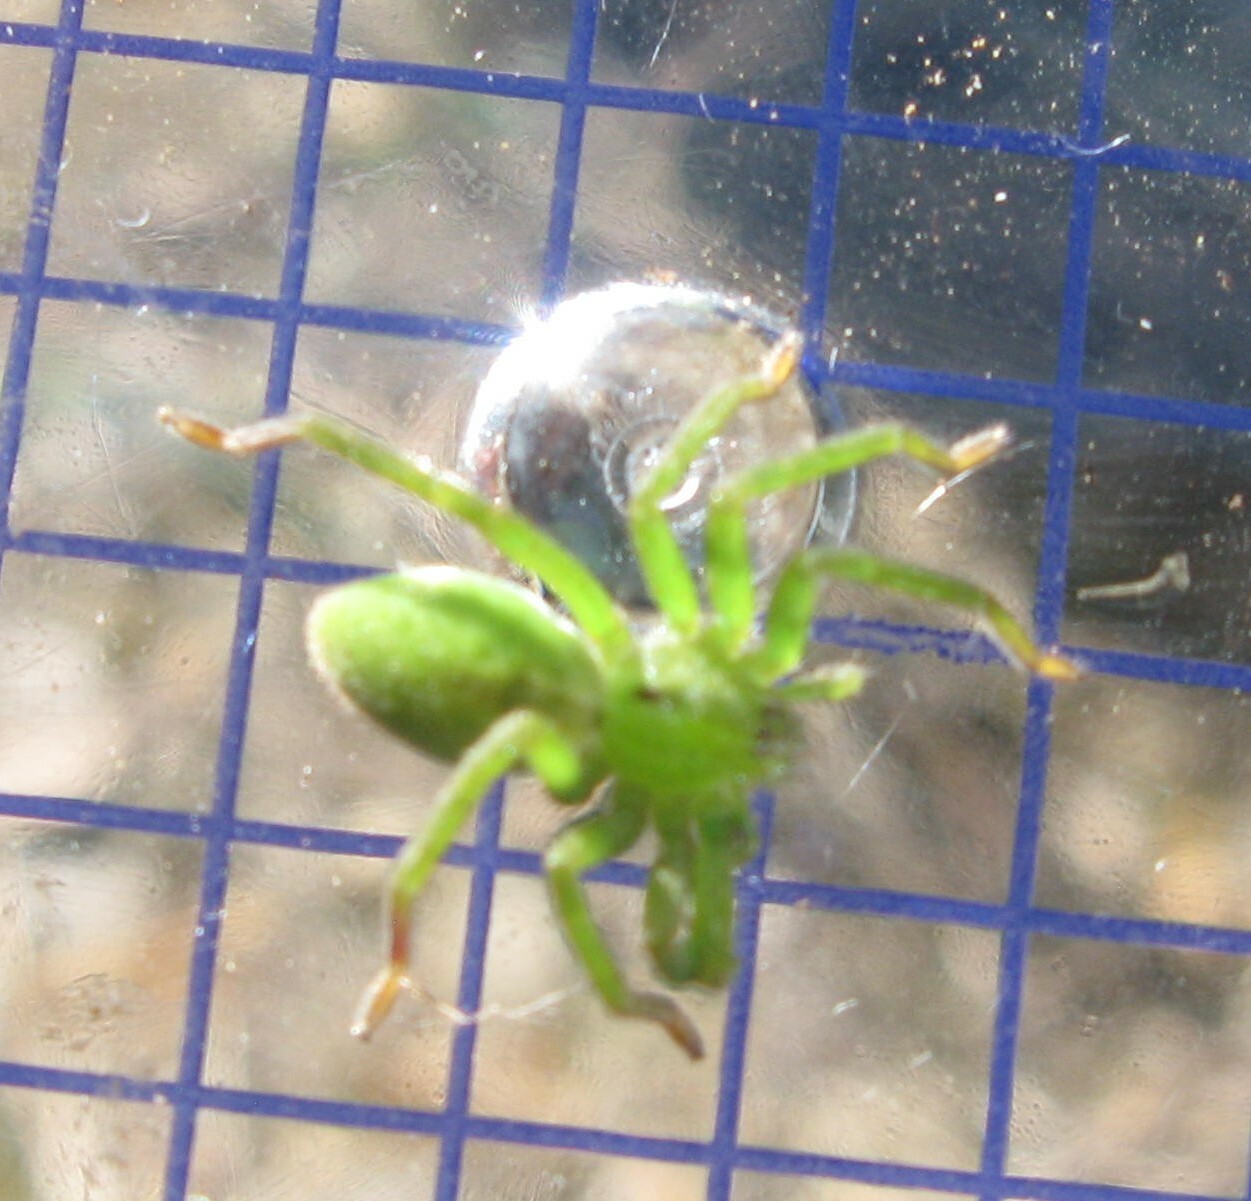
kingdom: Animalia
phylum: Arthropoda
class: Arachnida
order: Araneae
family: Sparassidae
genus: Micrommata
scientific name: Micrommata ligurina
